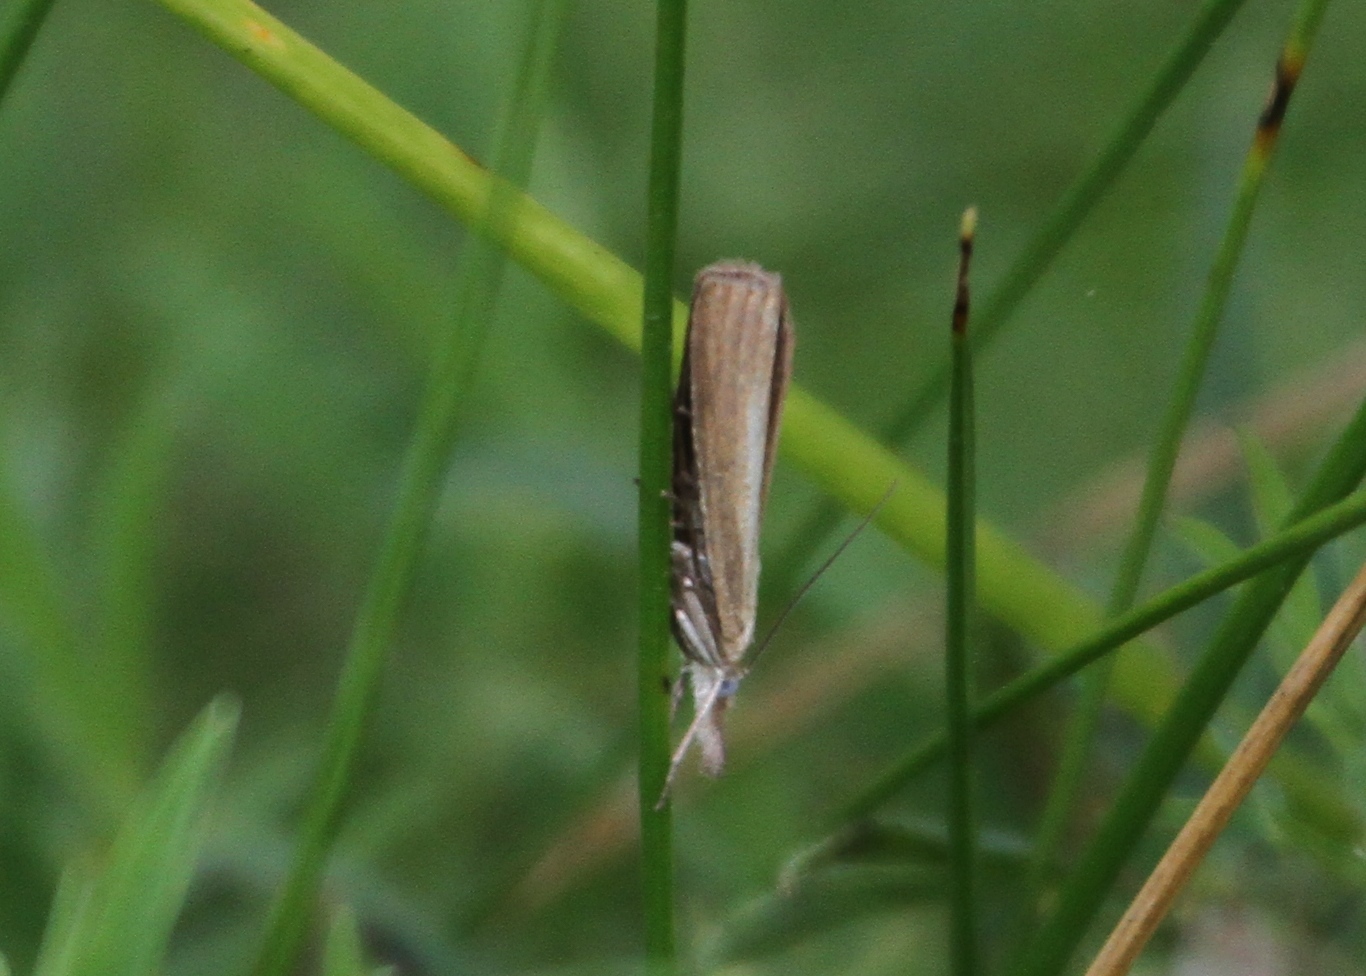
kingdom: Animalia
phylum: Arthropoda
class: Insecta
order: Lepidoptera
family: Crambidae
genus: Agriphila
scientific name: Agriphila straminella
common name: Straw grass-veneer
